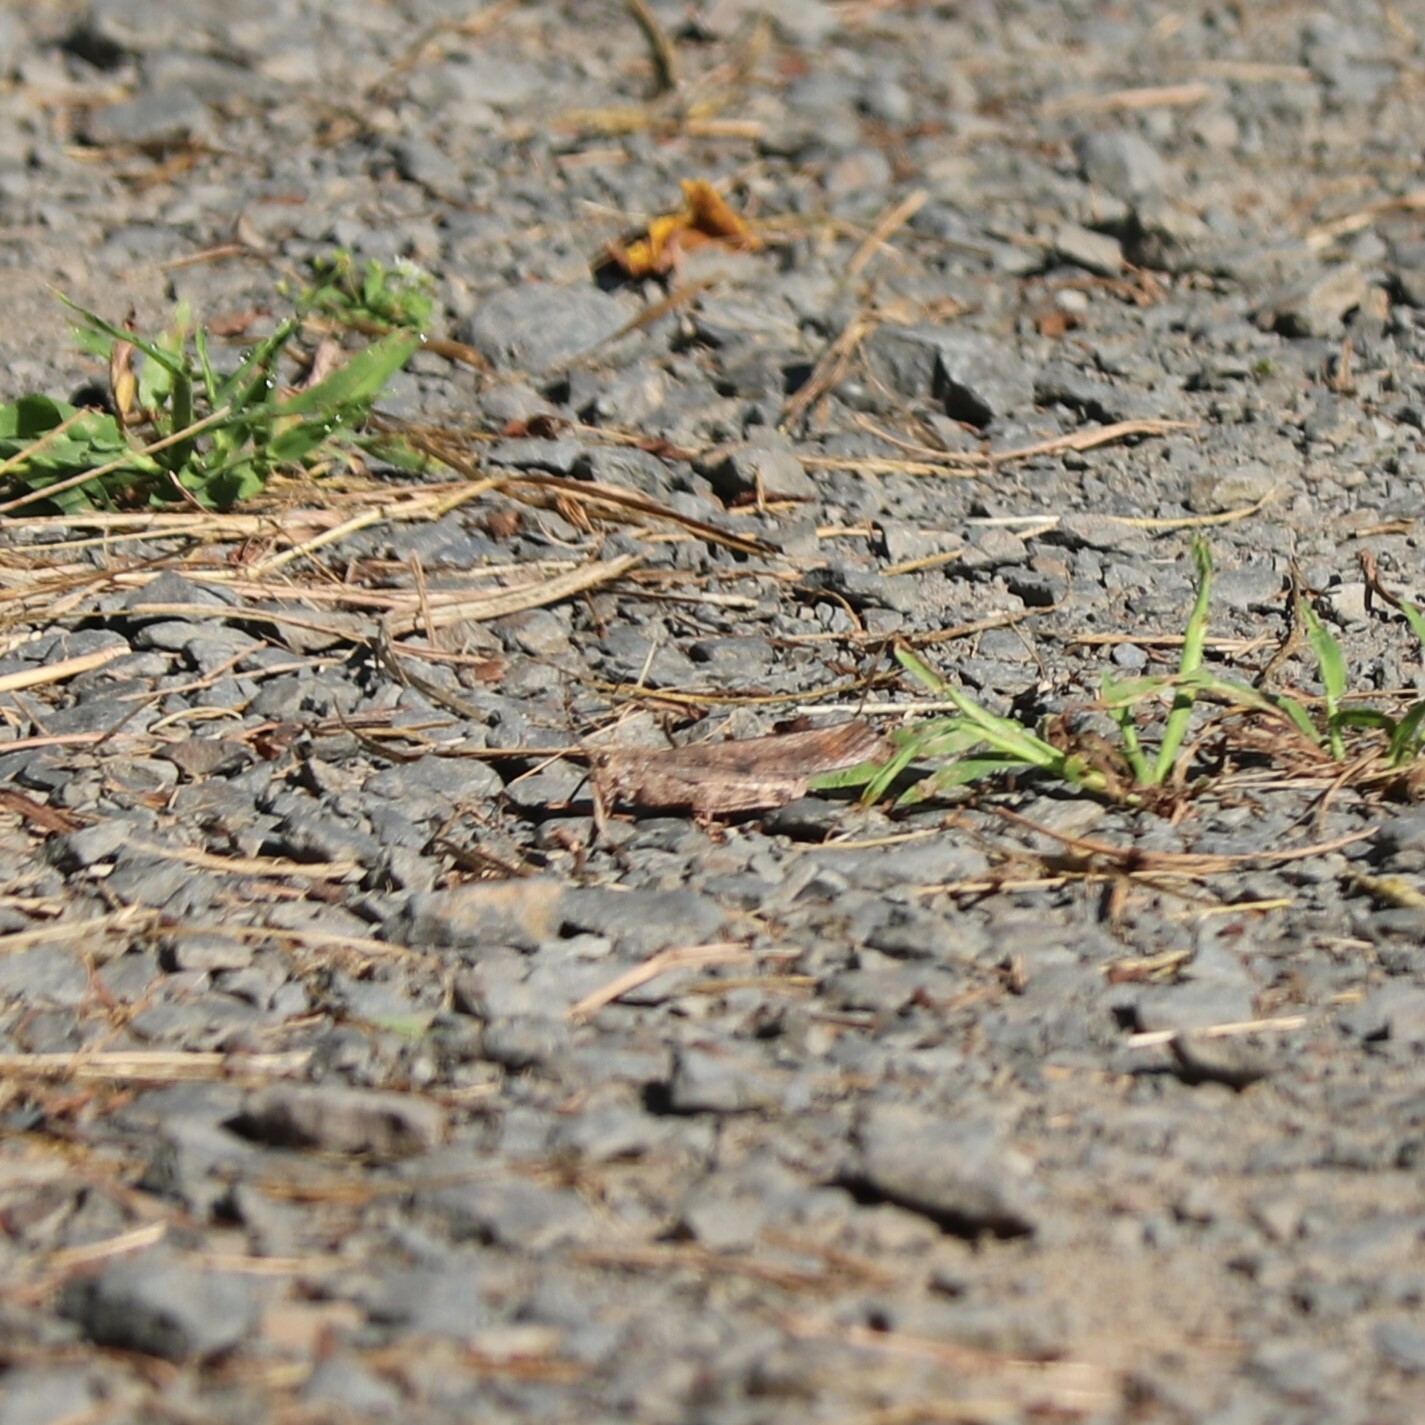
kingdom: Animalia
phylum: Arthropoda
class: Insecta
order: Orthoptera
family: Acrididae
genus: Dissosteira
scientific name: Dissosteira carolina
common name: Carolina grasshopper
